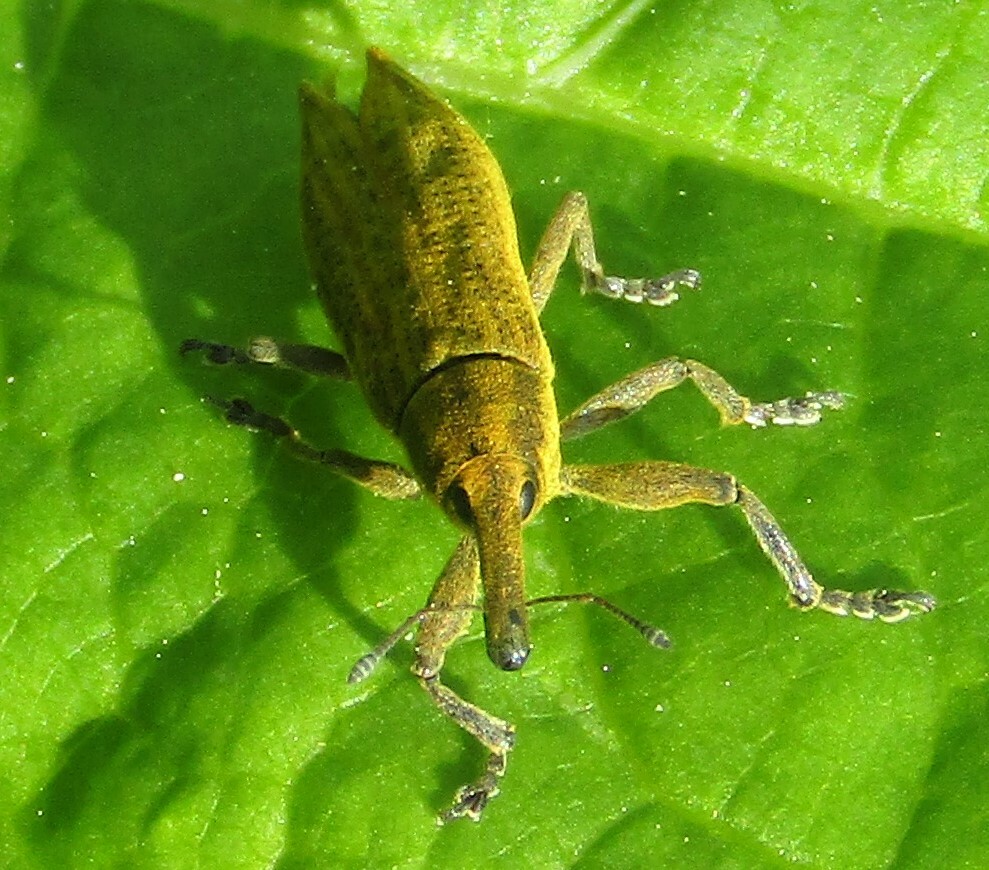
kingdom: Animalia
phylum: Arthropoda
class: Insecta
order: Coleoptera
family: Curculionidae
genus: Lixus
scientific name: Lixus iridis
